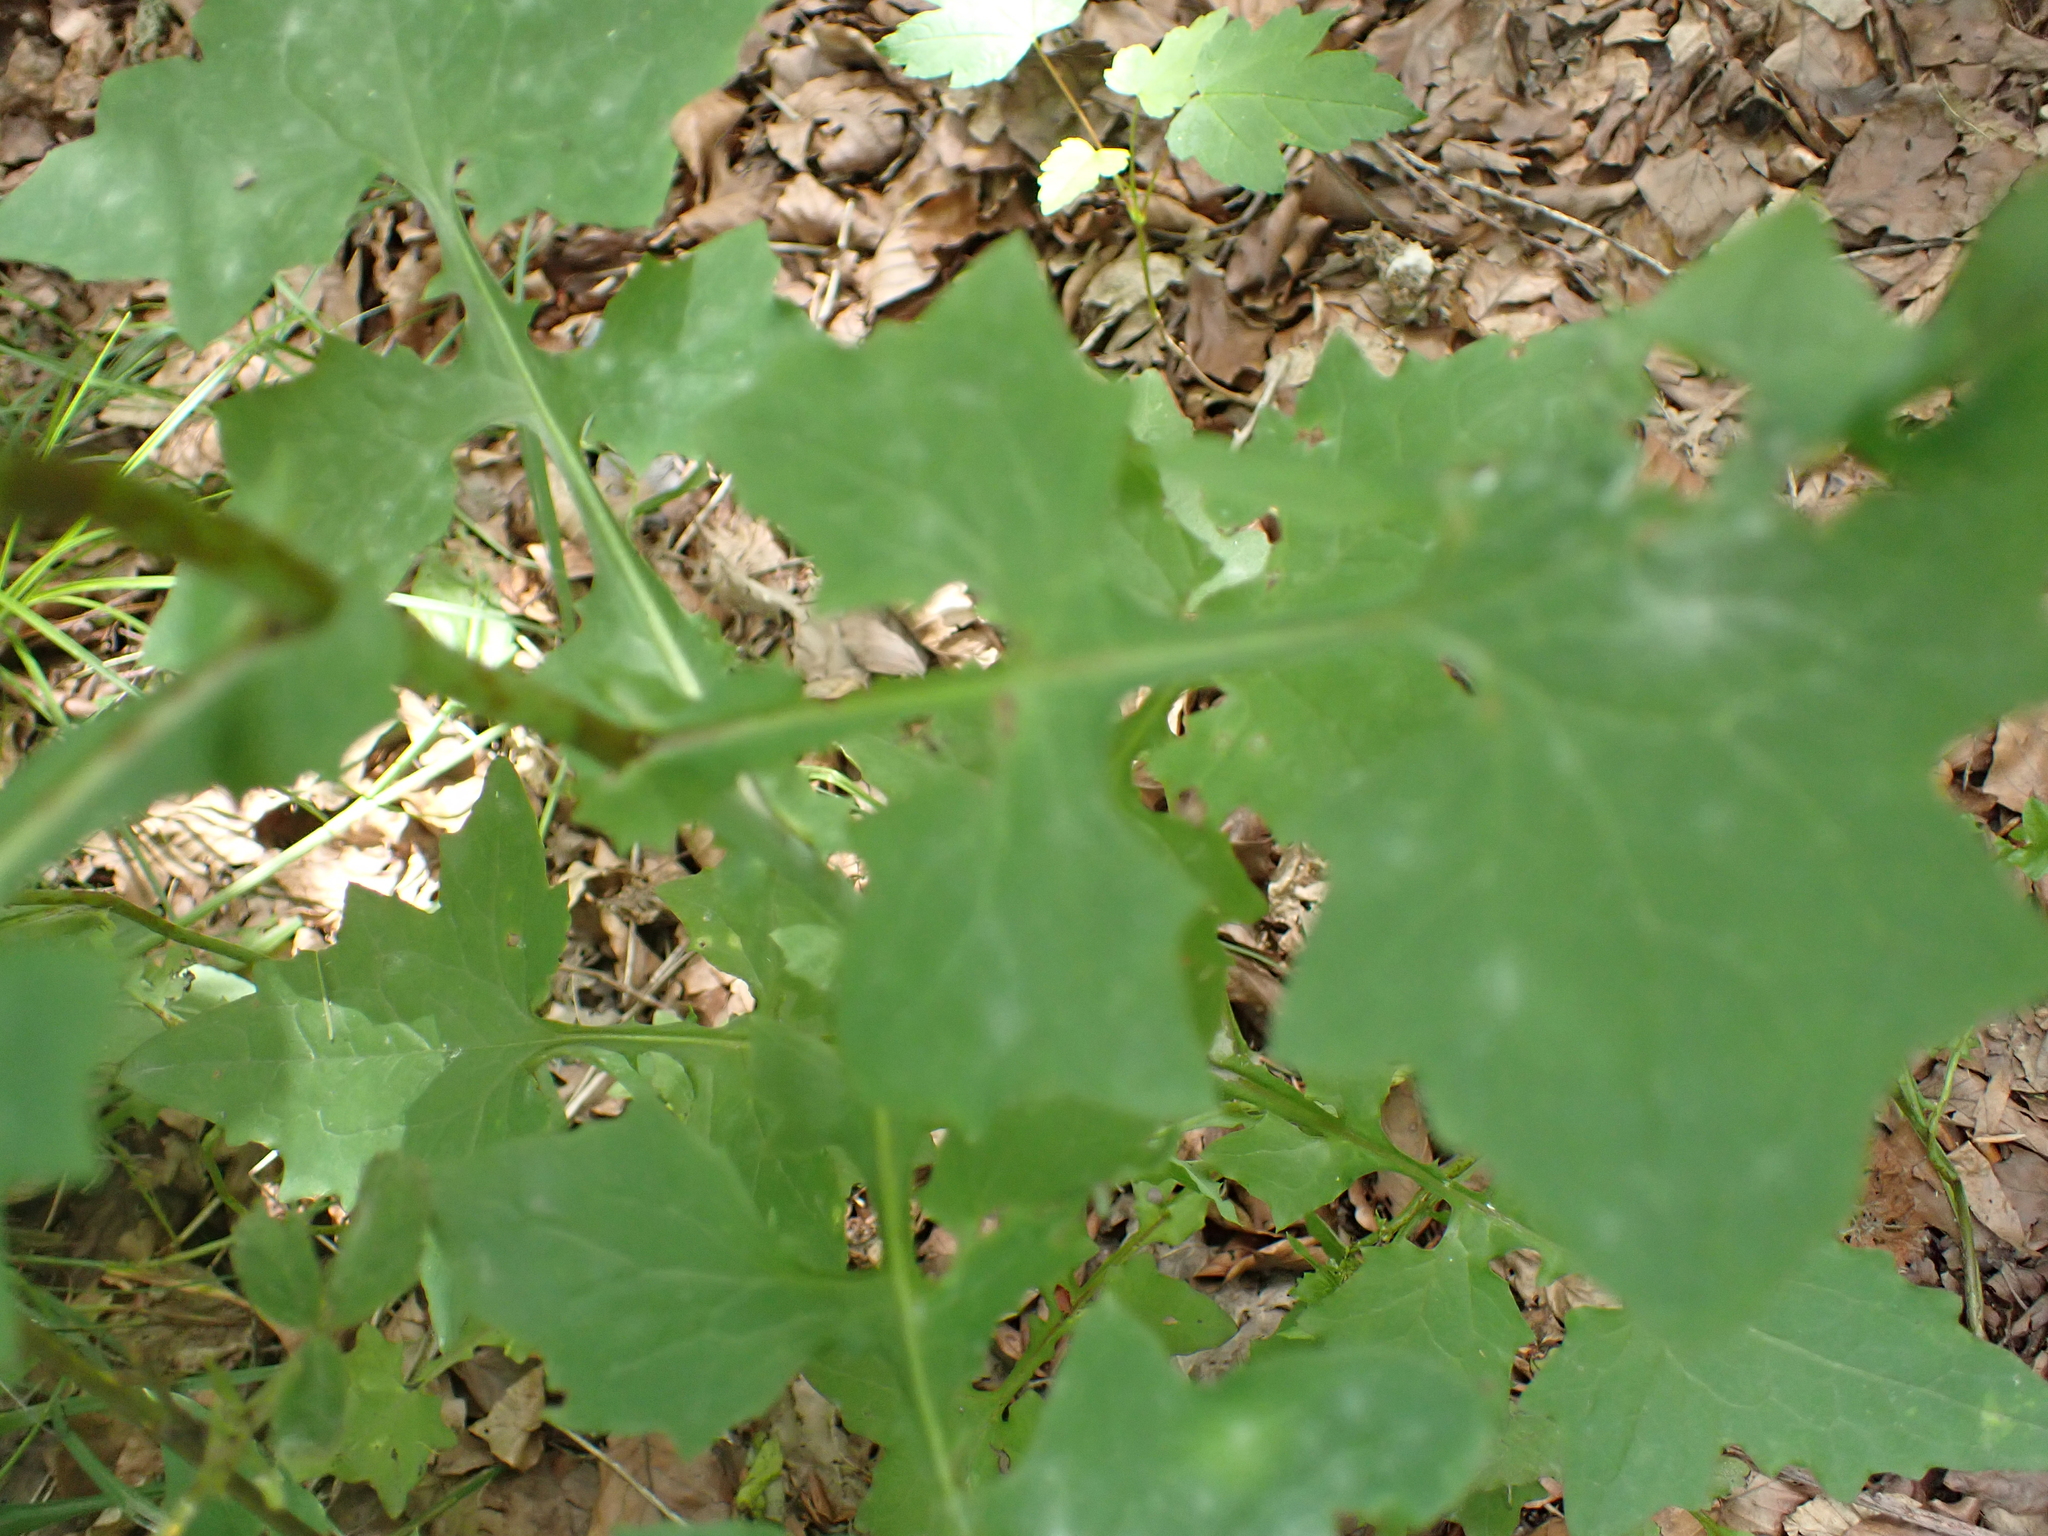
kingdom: Plantae
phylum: Tracheophyta
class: Magnoliopsida
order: Asterales
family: Asteraceae
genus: Mycelis
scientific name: Mycelis muralis
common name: Wall lettuce
